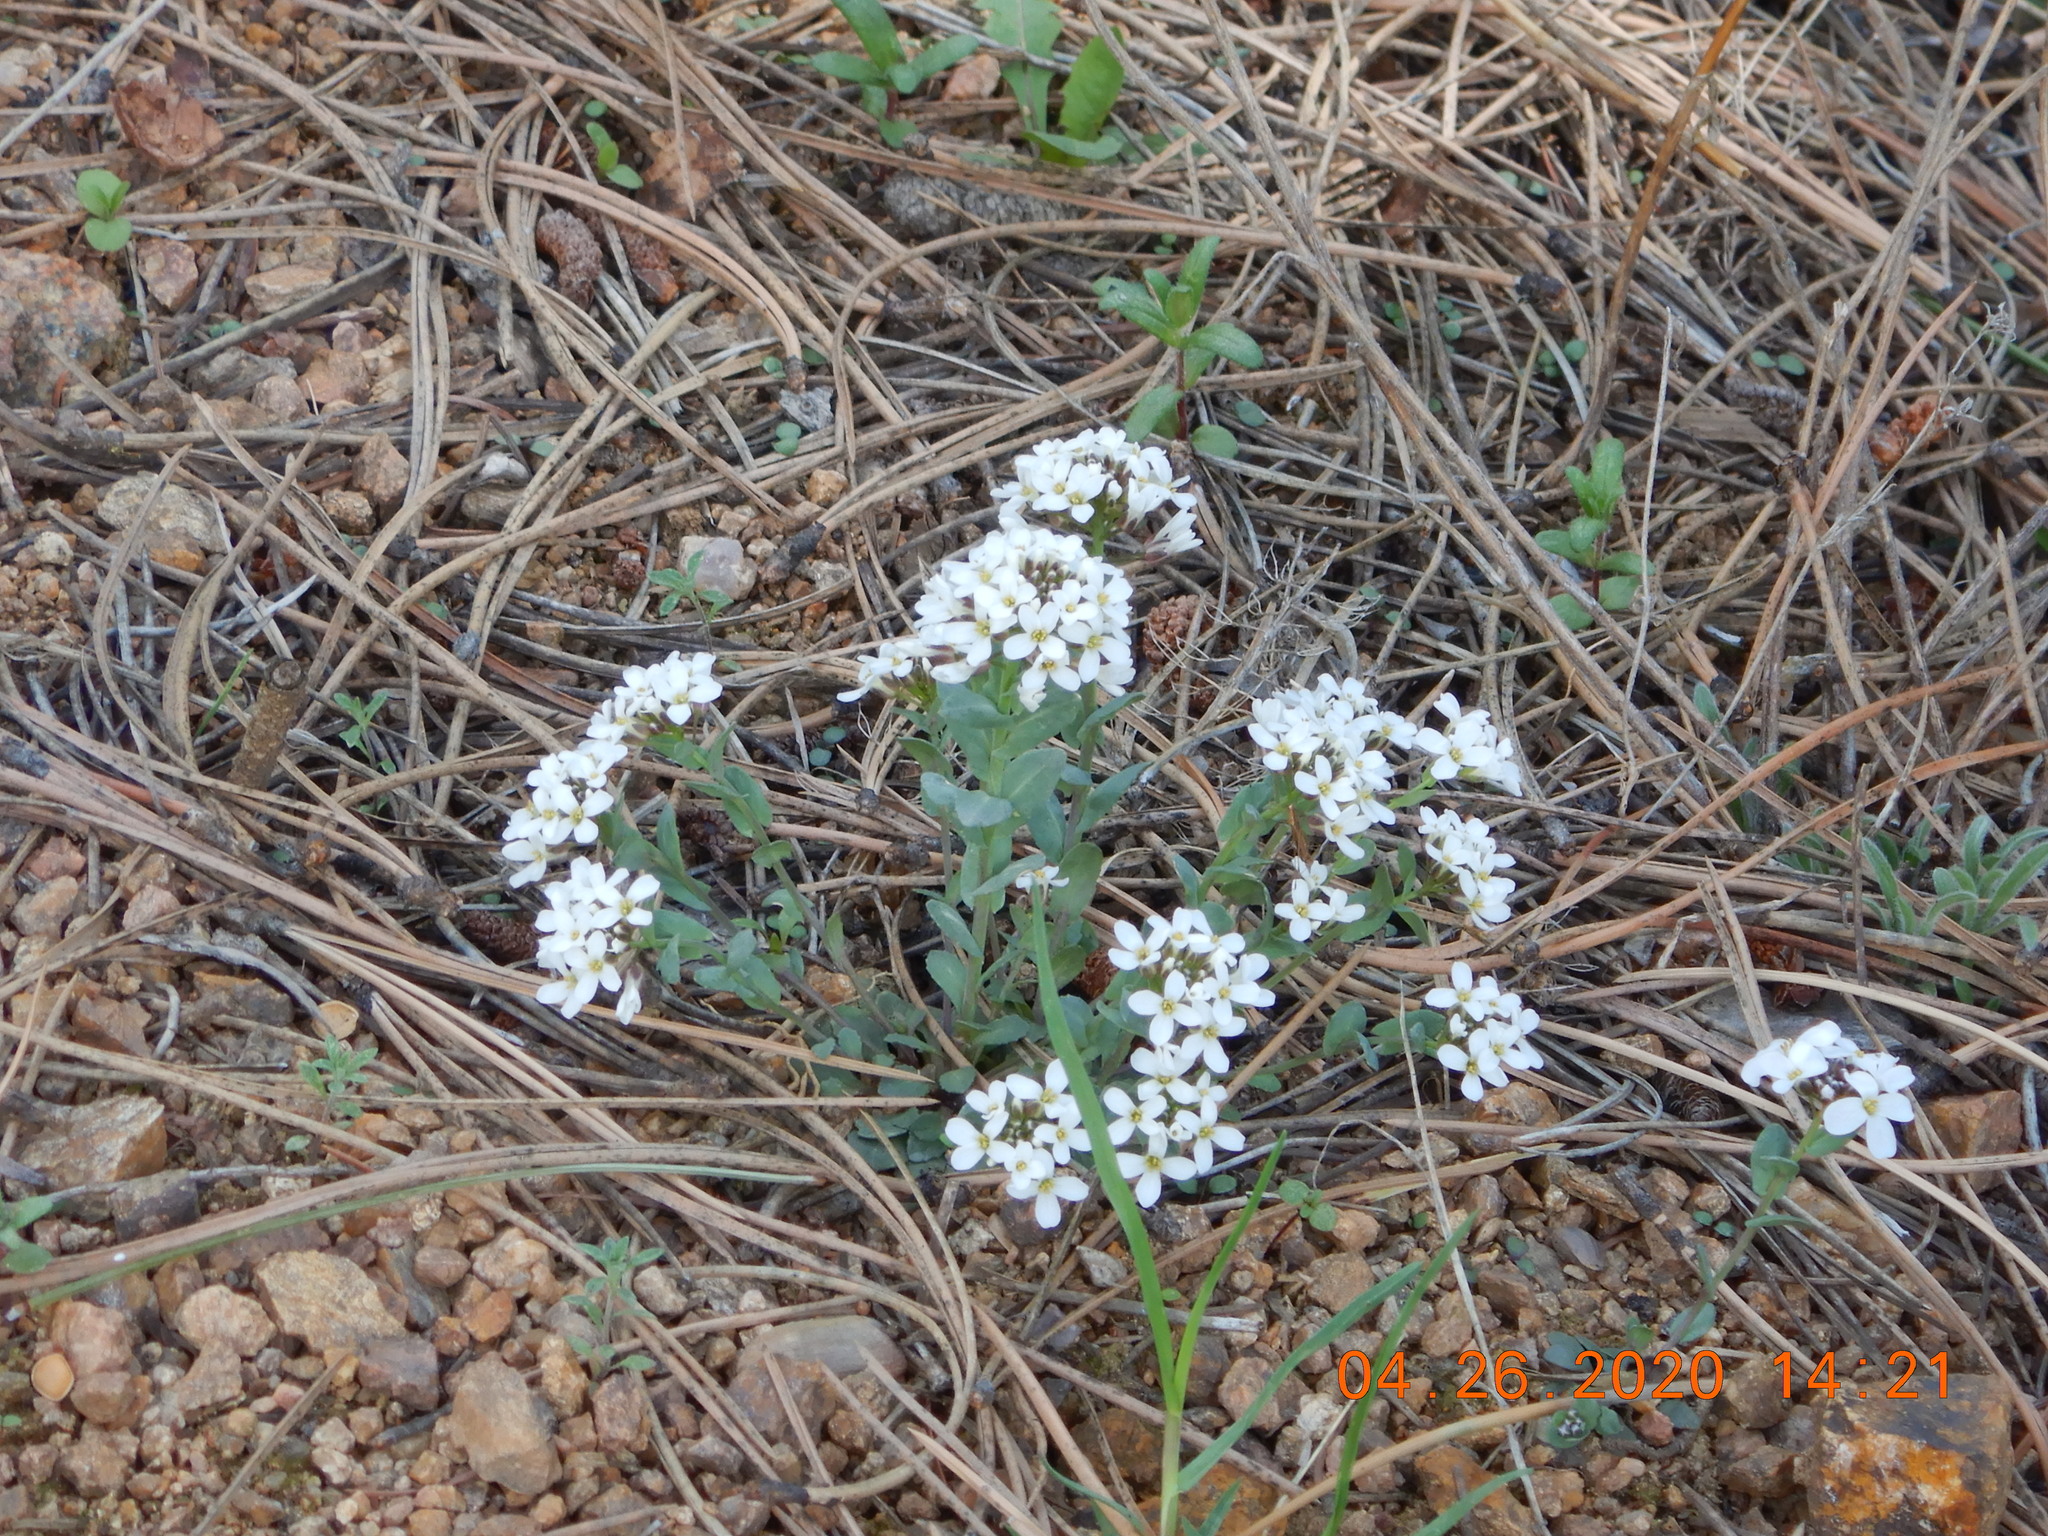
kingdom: Plantae
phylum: Tracheophyta
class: Magnoliopsida
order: Brassicales
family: Brassicaceae
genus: Noccaea
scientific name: Noccaea fendleri
